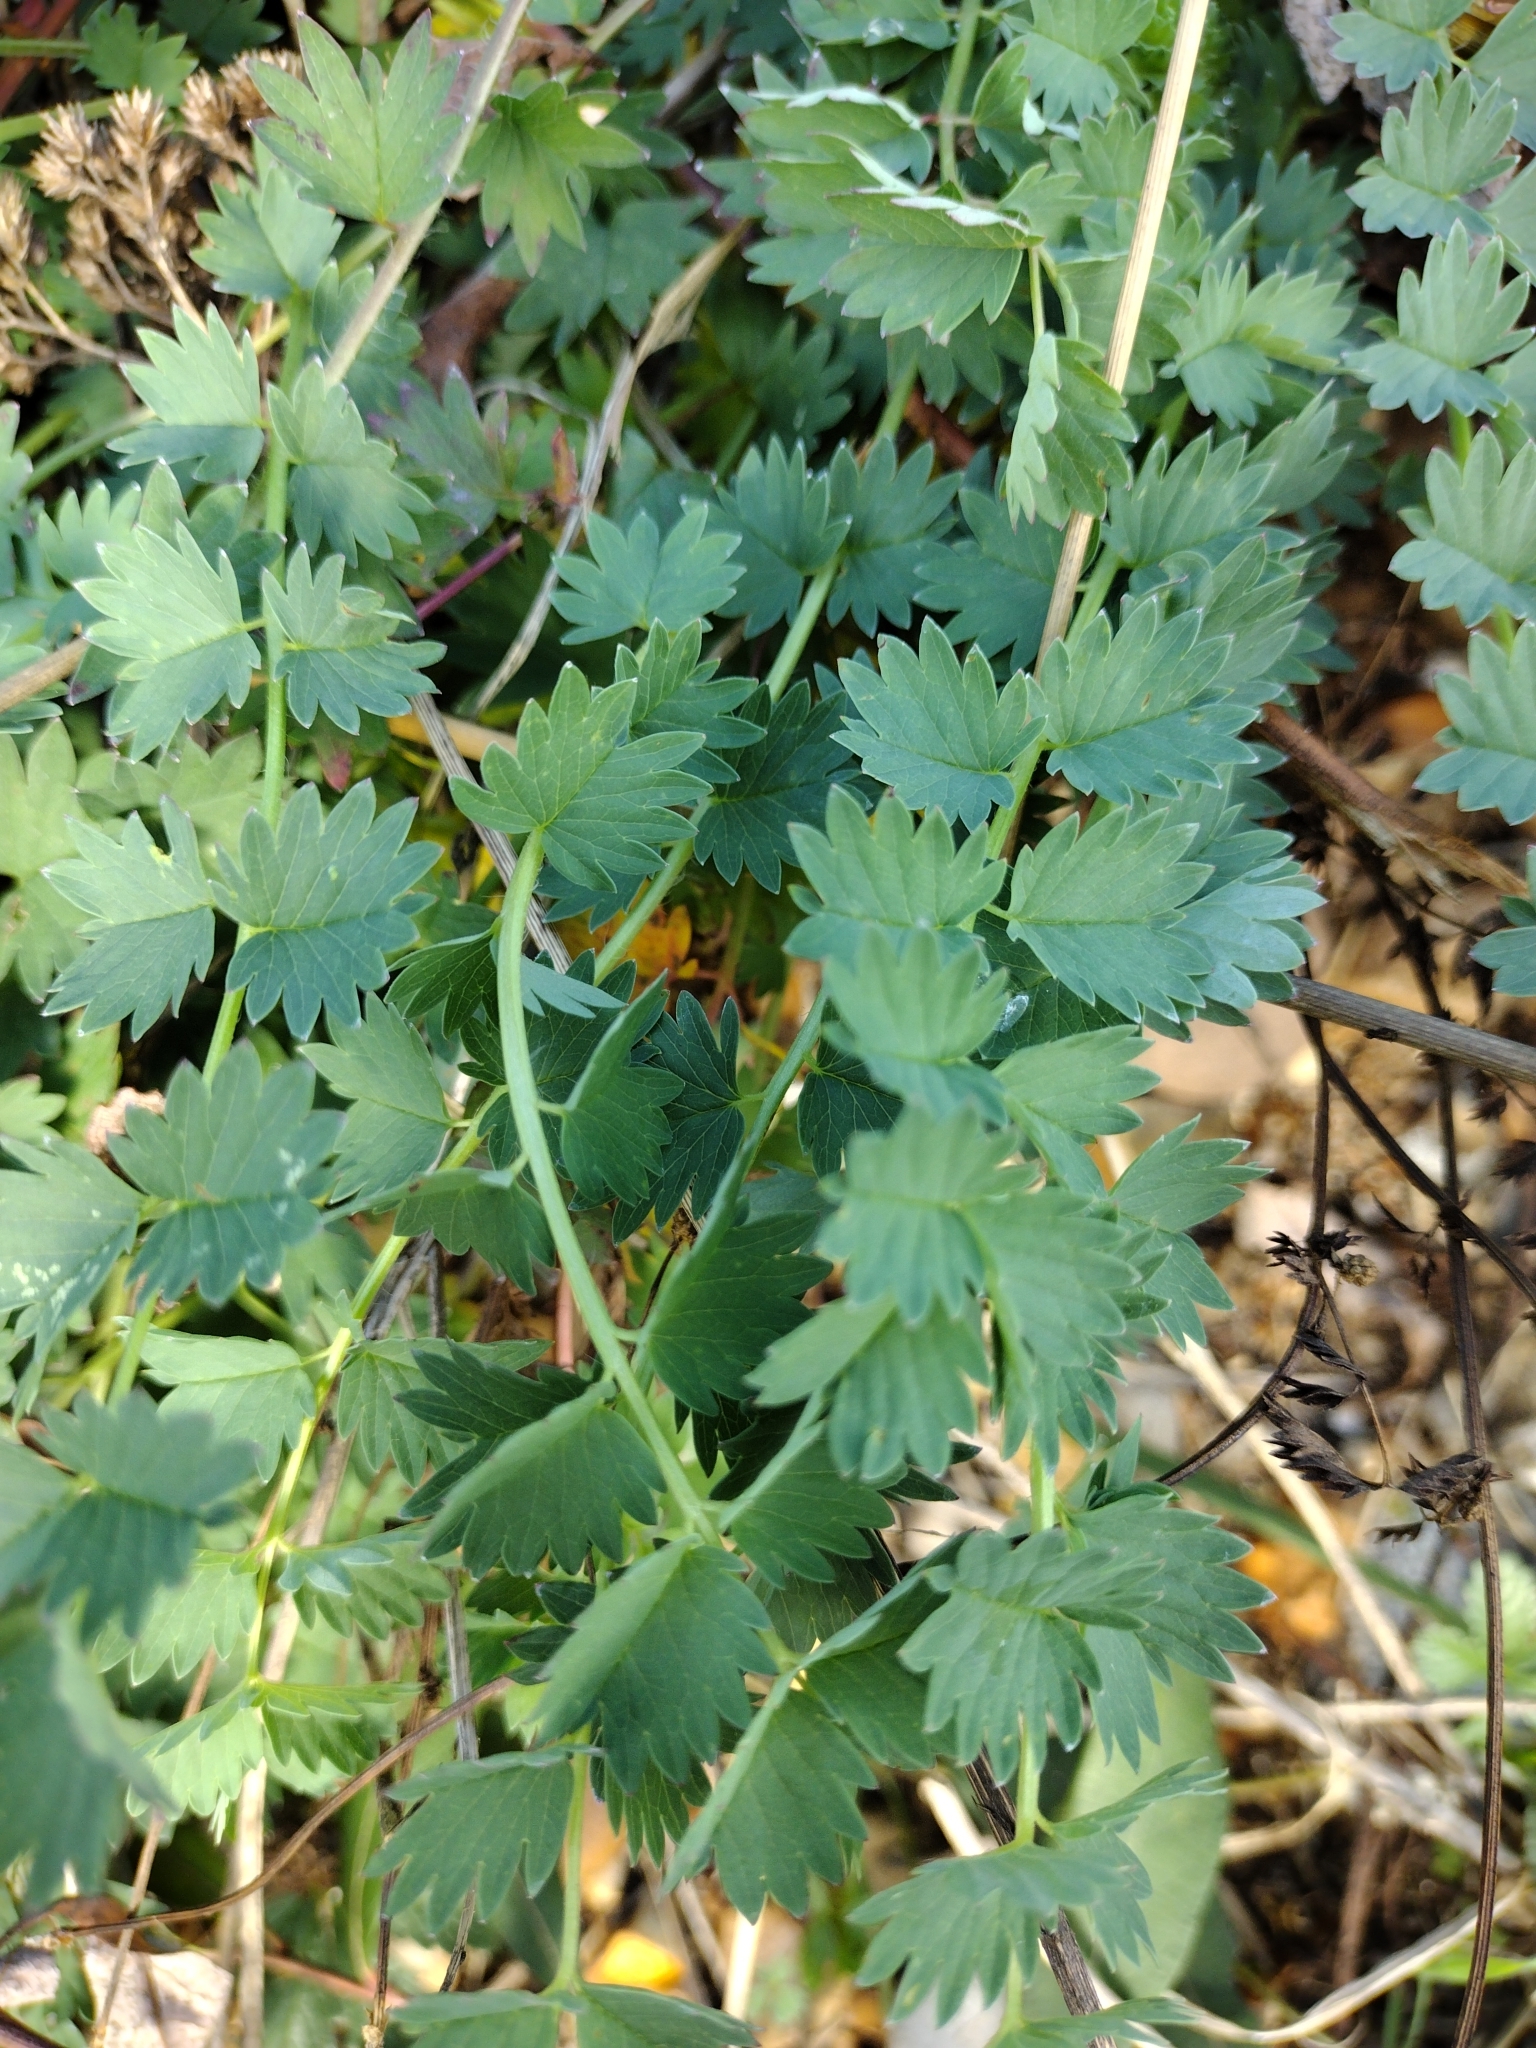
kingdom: Plantae
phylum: Tracheophyta
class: Magnoliopsida
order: Rosales
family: Rosaceae
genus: Poterium
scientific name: Poterium sanguisorba
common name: Salad burnet
